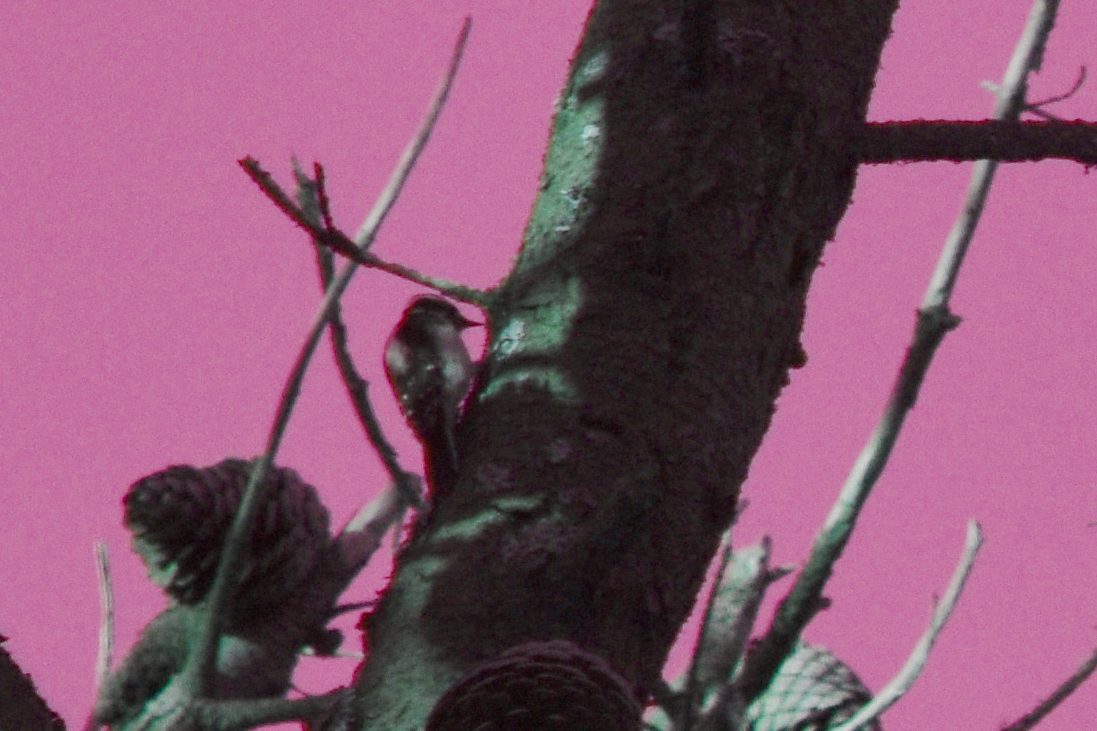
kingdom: Animalia
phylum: Chordata
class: Aves
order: Piciformes
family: Picidae
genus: Dryobates
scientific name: Dryobates pubescens
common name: Downy woodpecker
